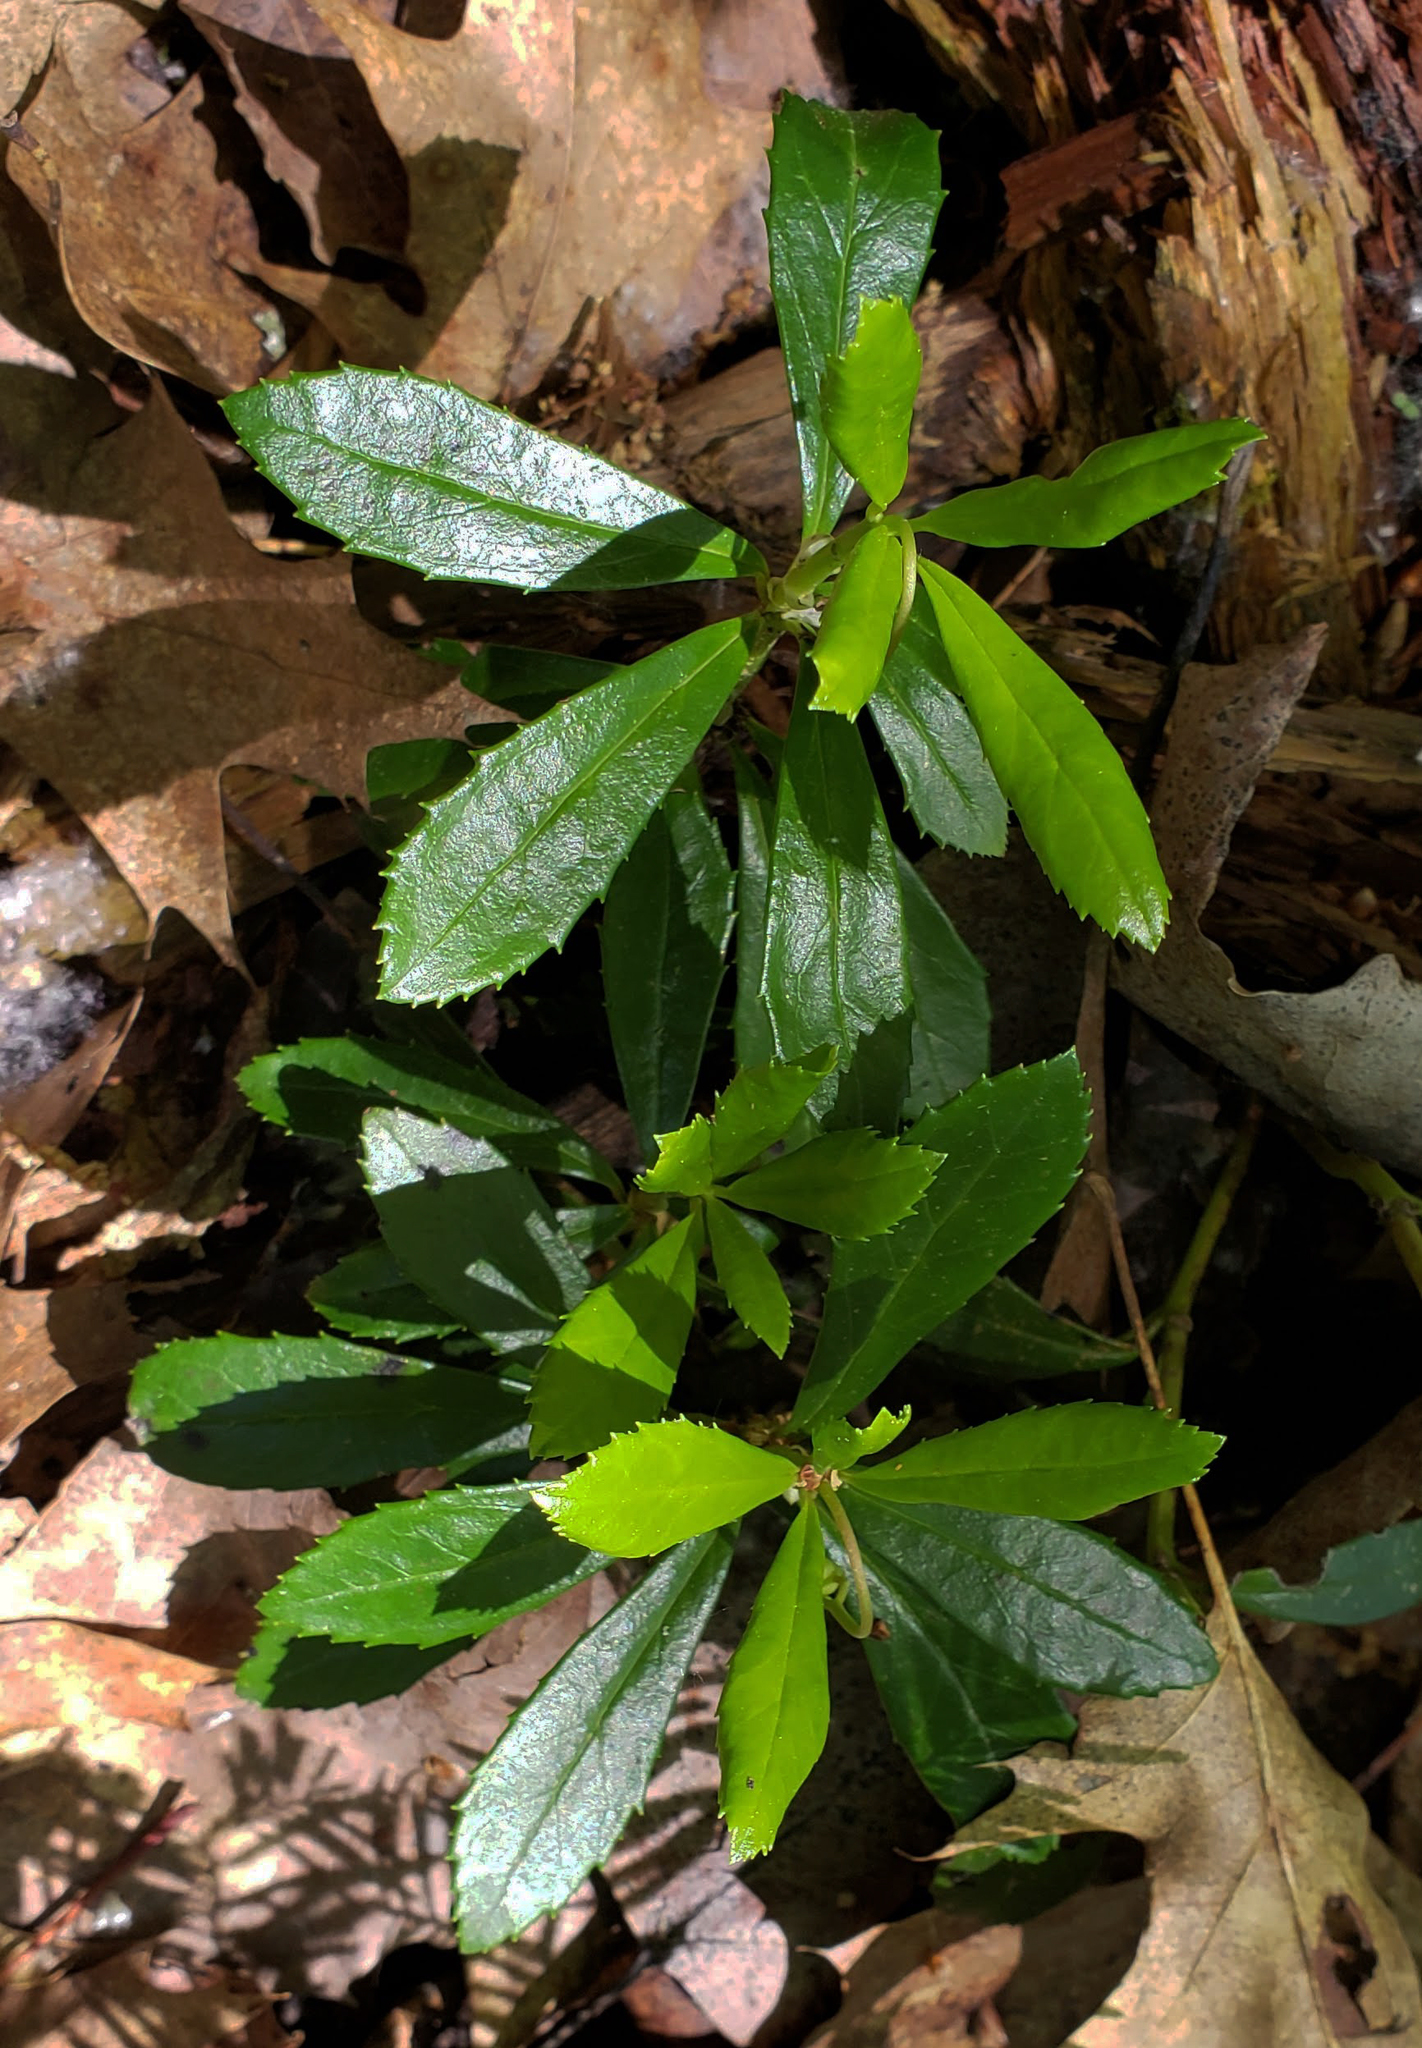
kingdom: Plantae
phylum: Tracheophyta
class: Magnoliopsida
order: Ericales
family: Ericaceae
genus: Chimaphila
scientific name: Chimaphila umbellata
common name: Pipsissewa
